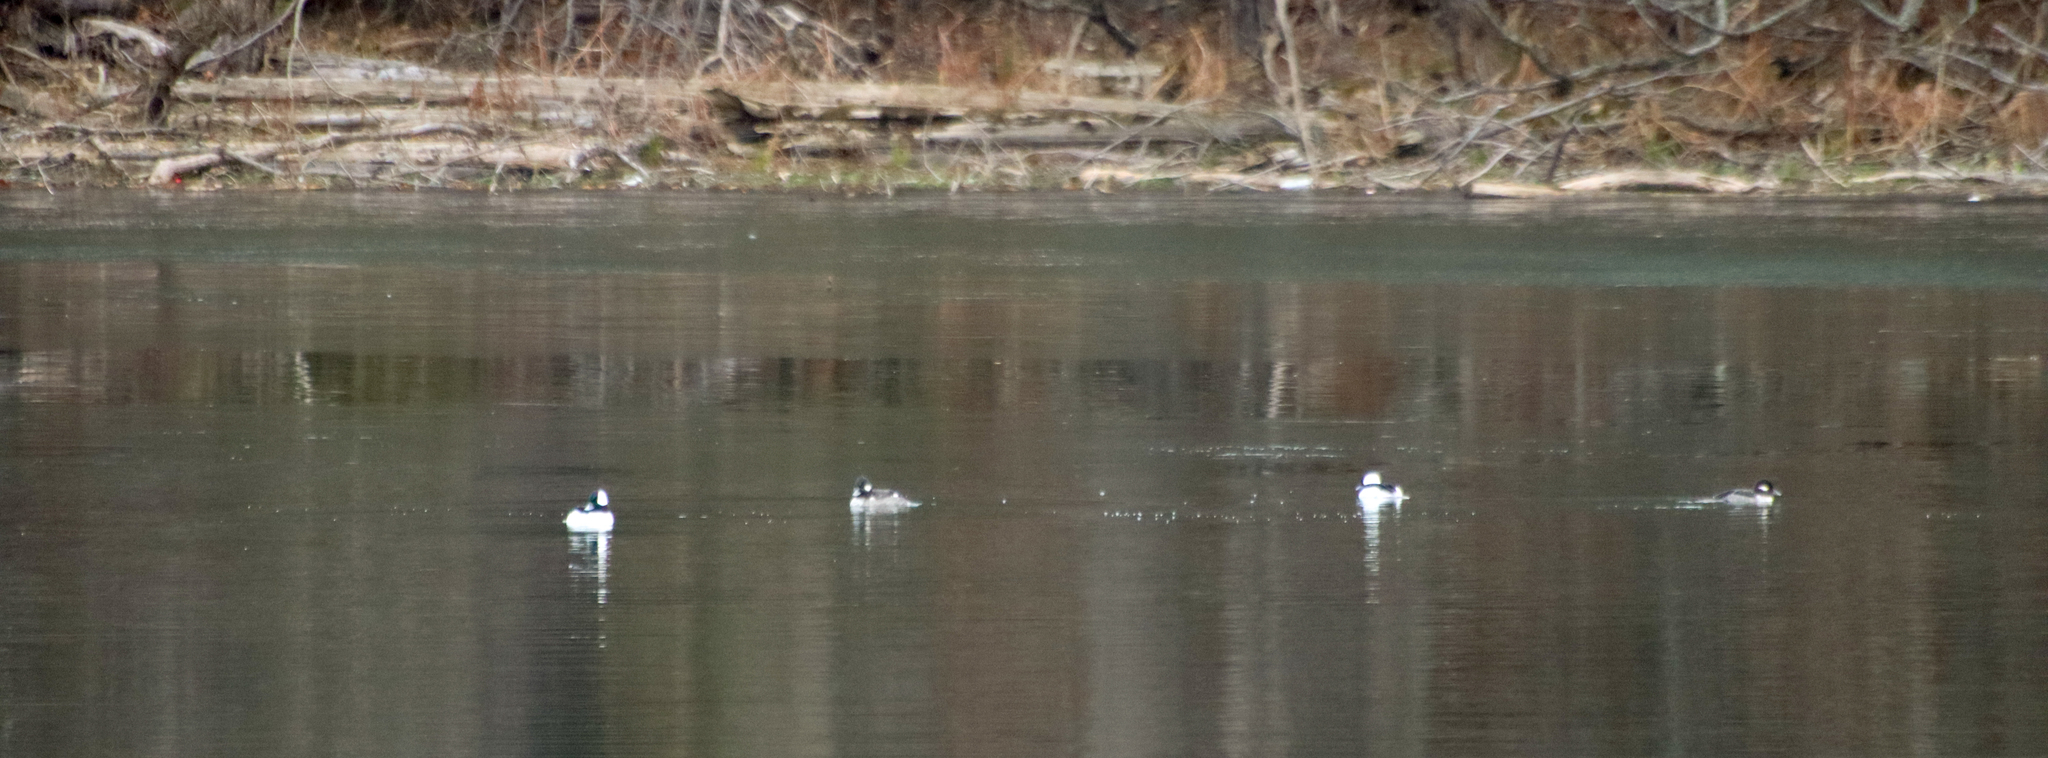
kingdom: Animalia
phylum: Chordata
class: Aves
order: Anseriformes
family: Anatidae
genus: Bucephala
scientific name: Bucephala albeola
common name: Bufflehead
